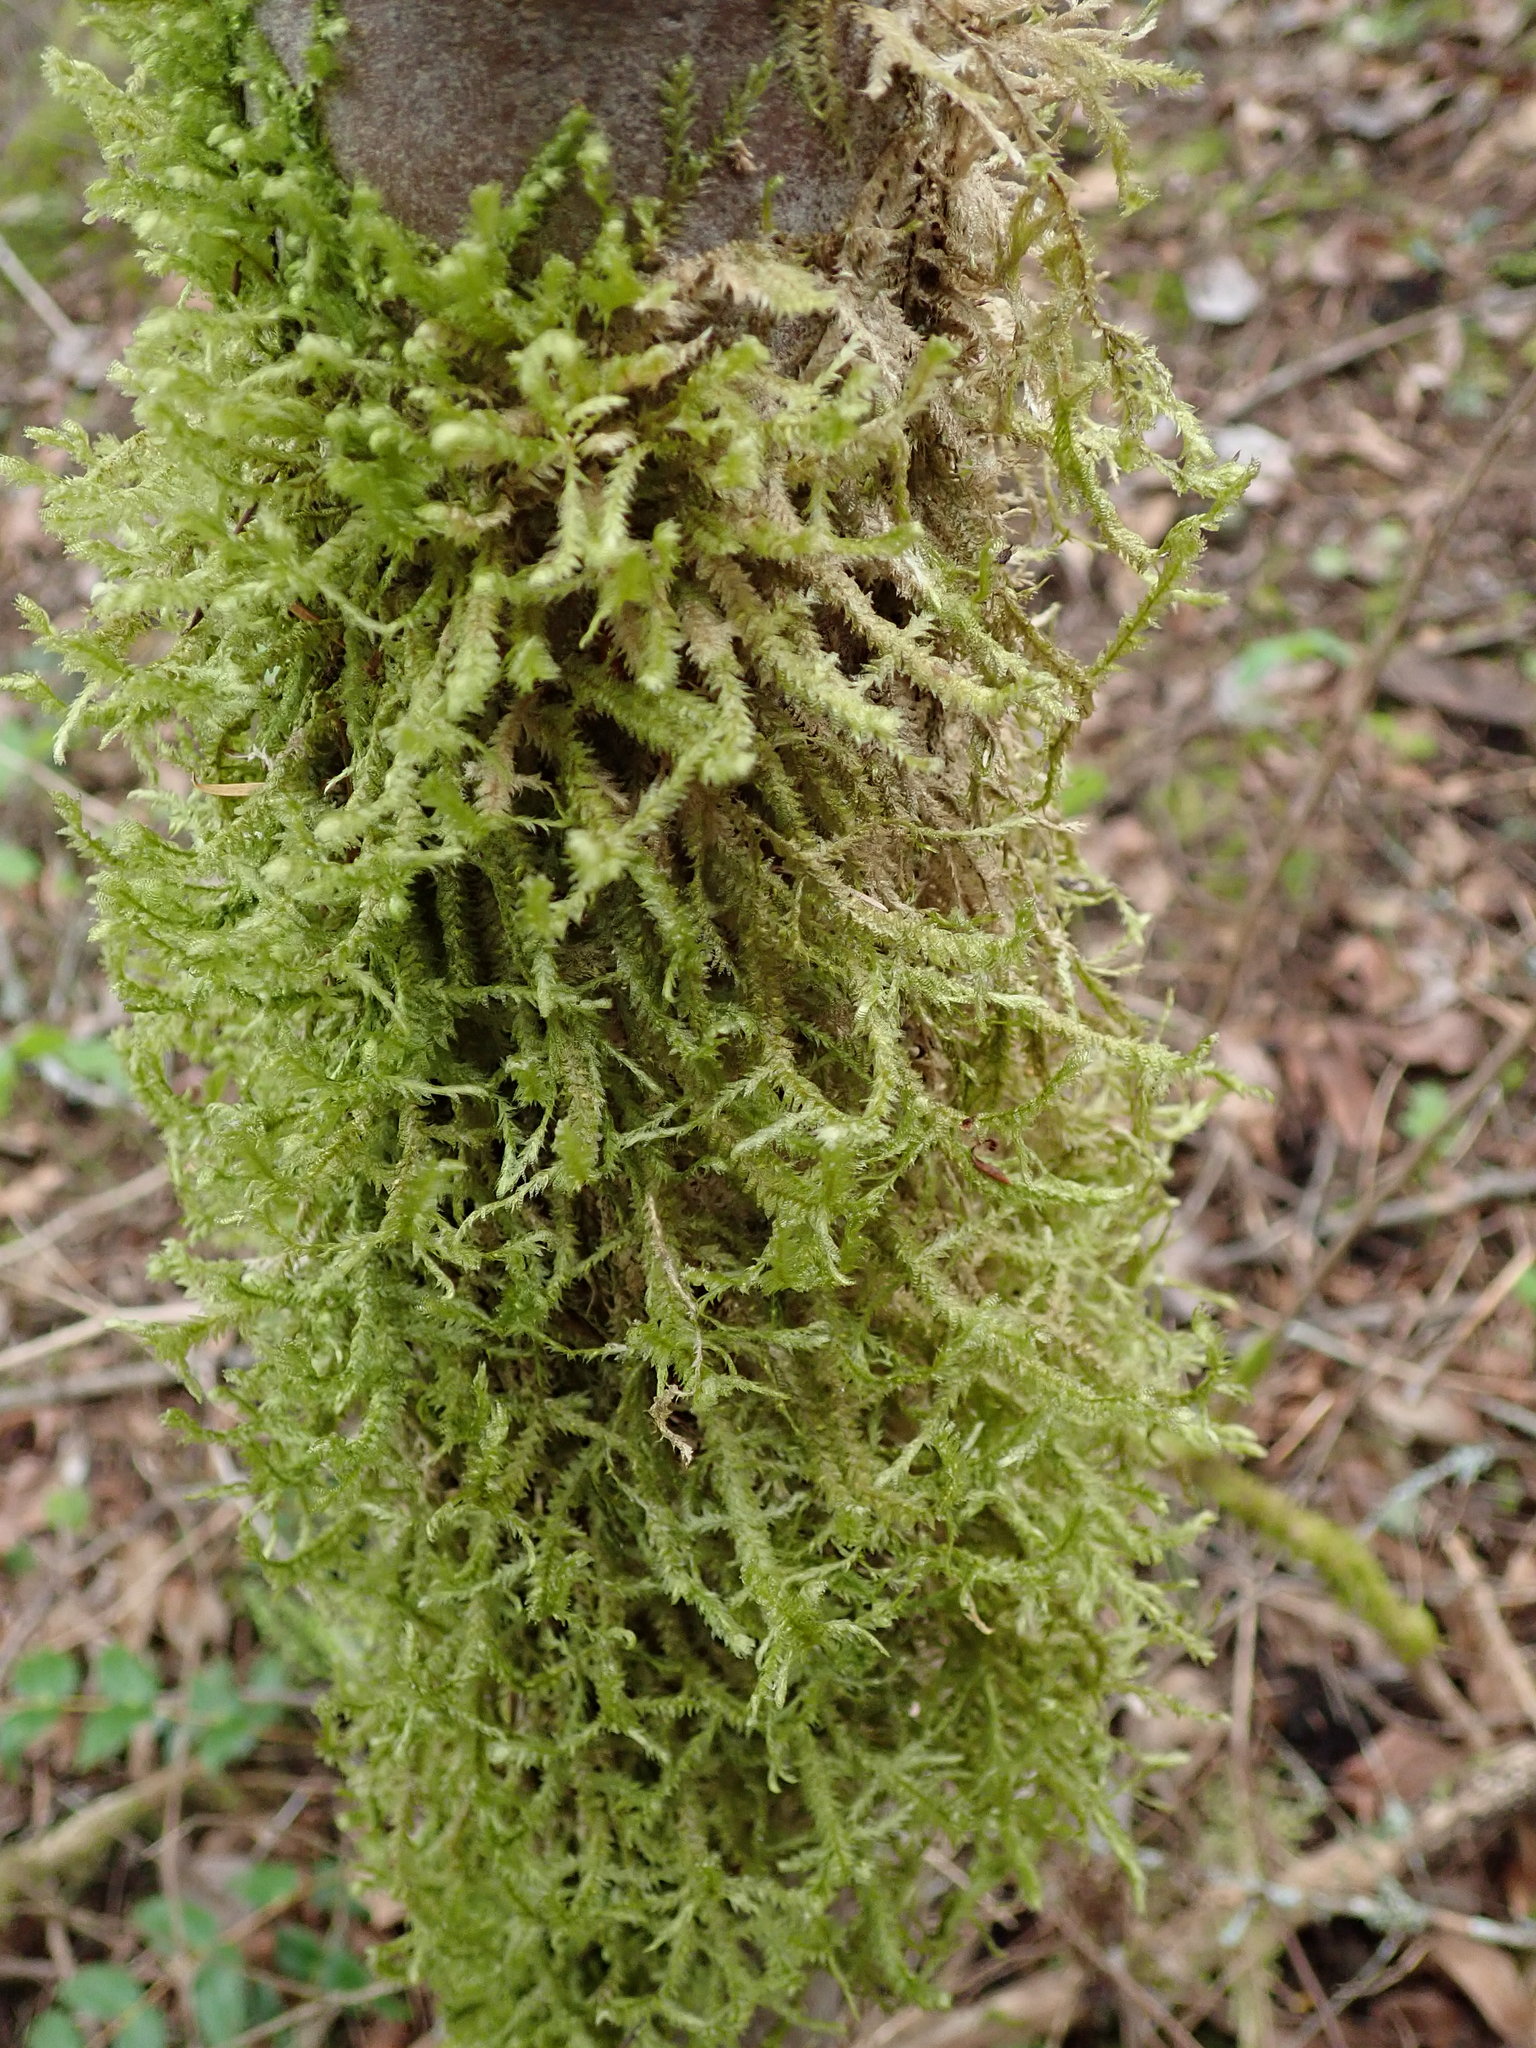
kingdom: Plantae
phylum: Bryophyta
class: Bryopsida
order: Hypnales
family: Neckeraceae
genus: Neckera
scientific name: Neckera douglasii
